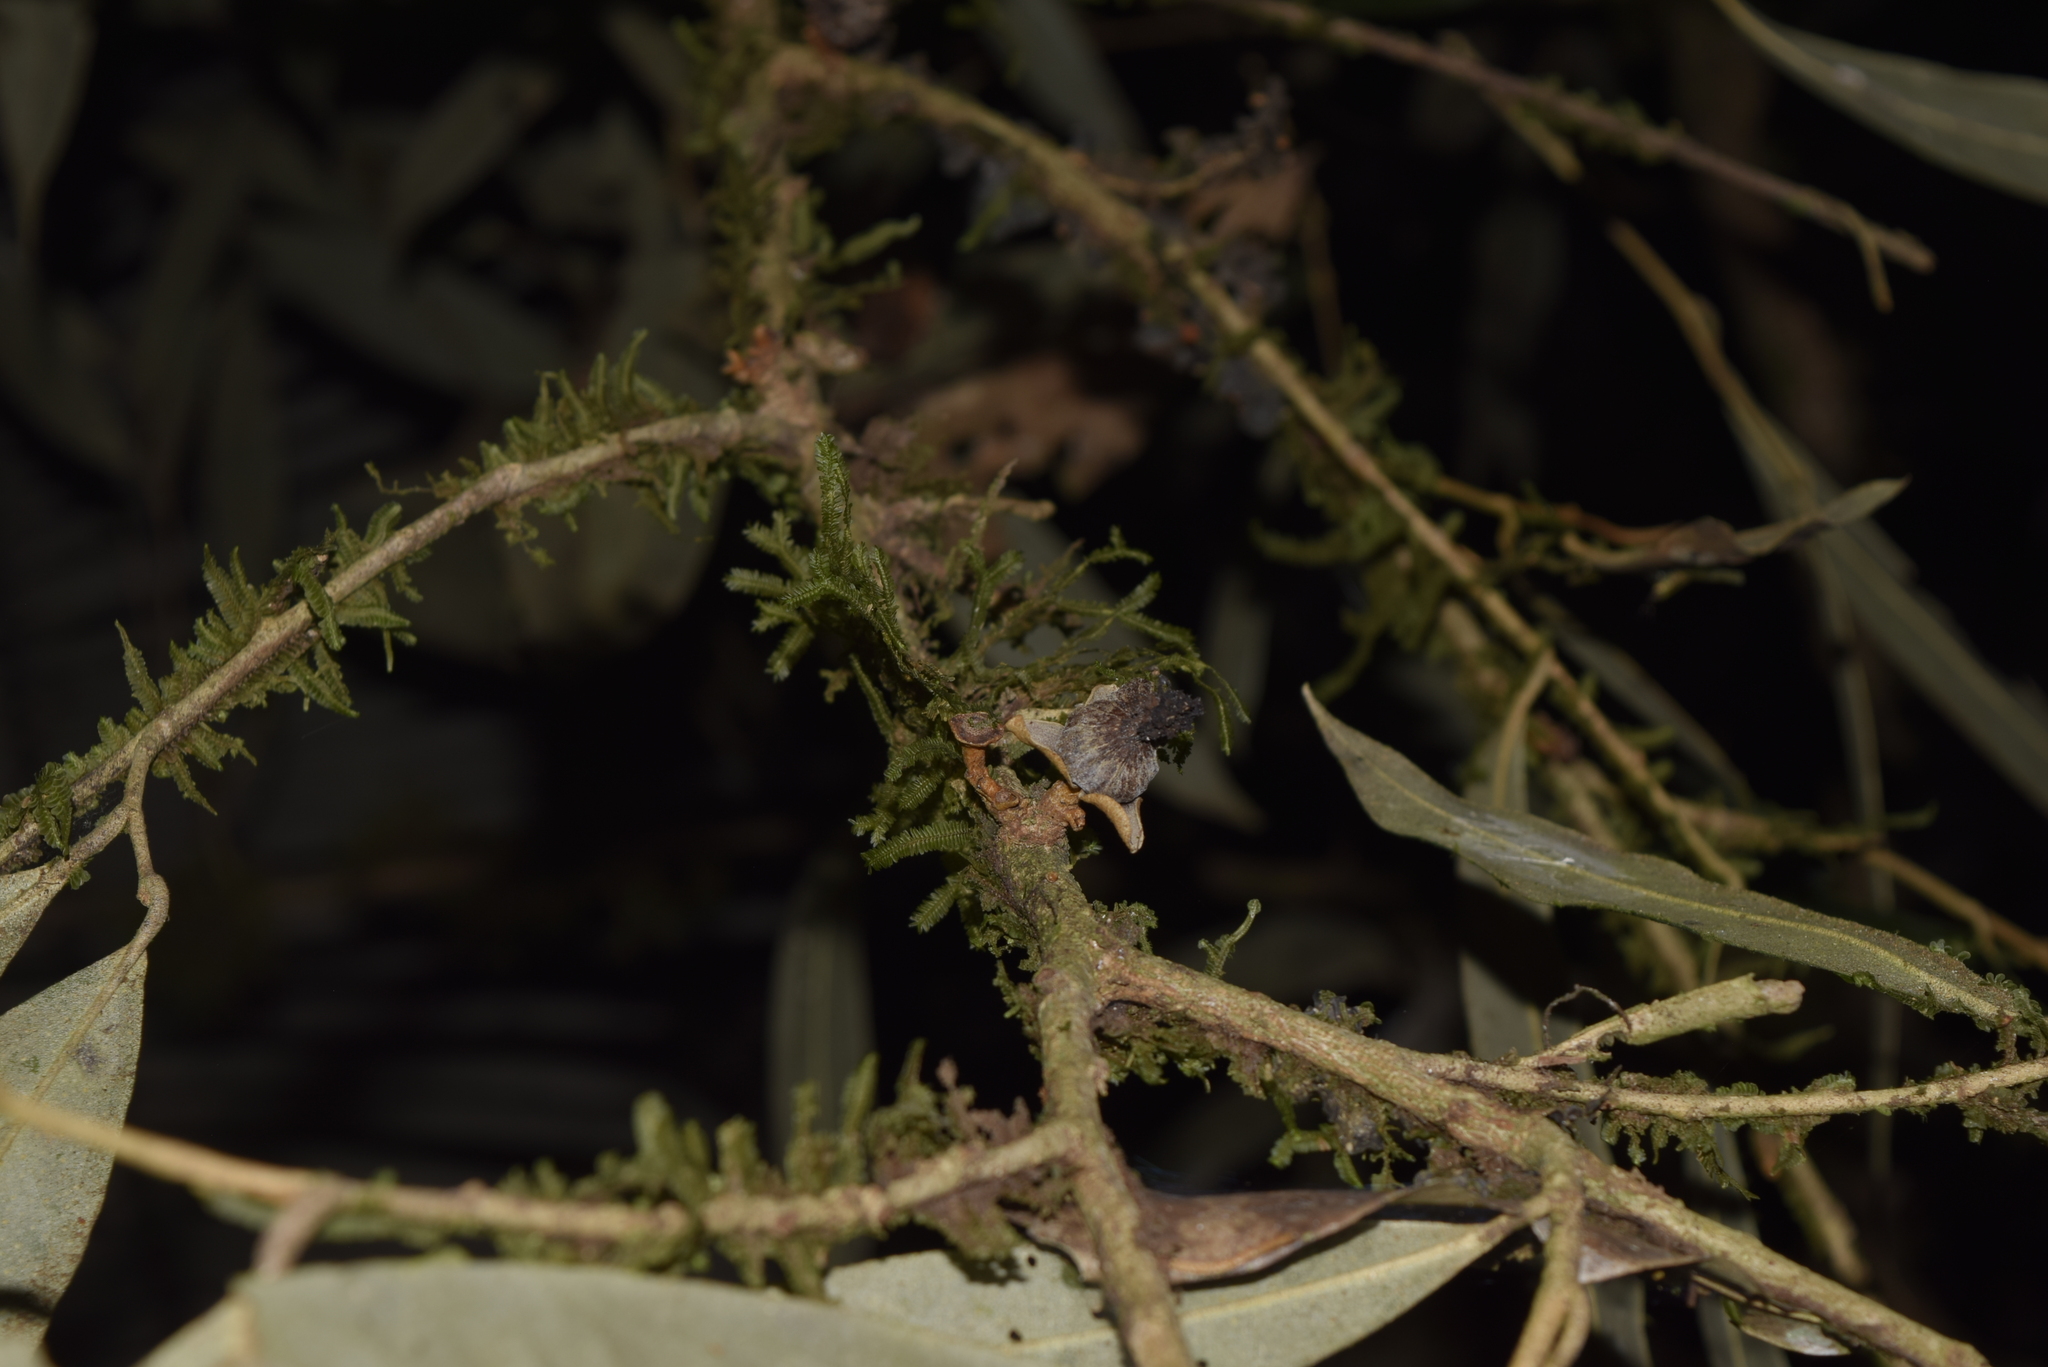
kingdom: Plantae
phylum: Tracheophyta
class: Magnoliopsida
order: Magnoliales
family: Annonaceae
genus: Duguetia
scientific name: Duguetia odorata
